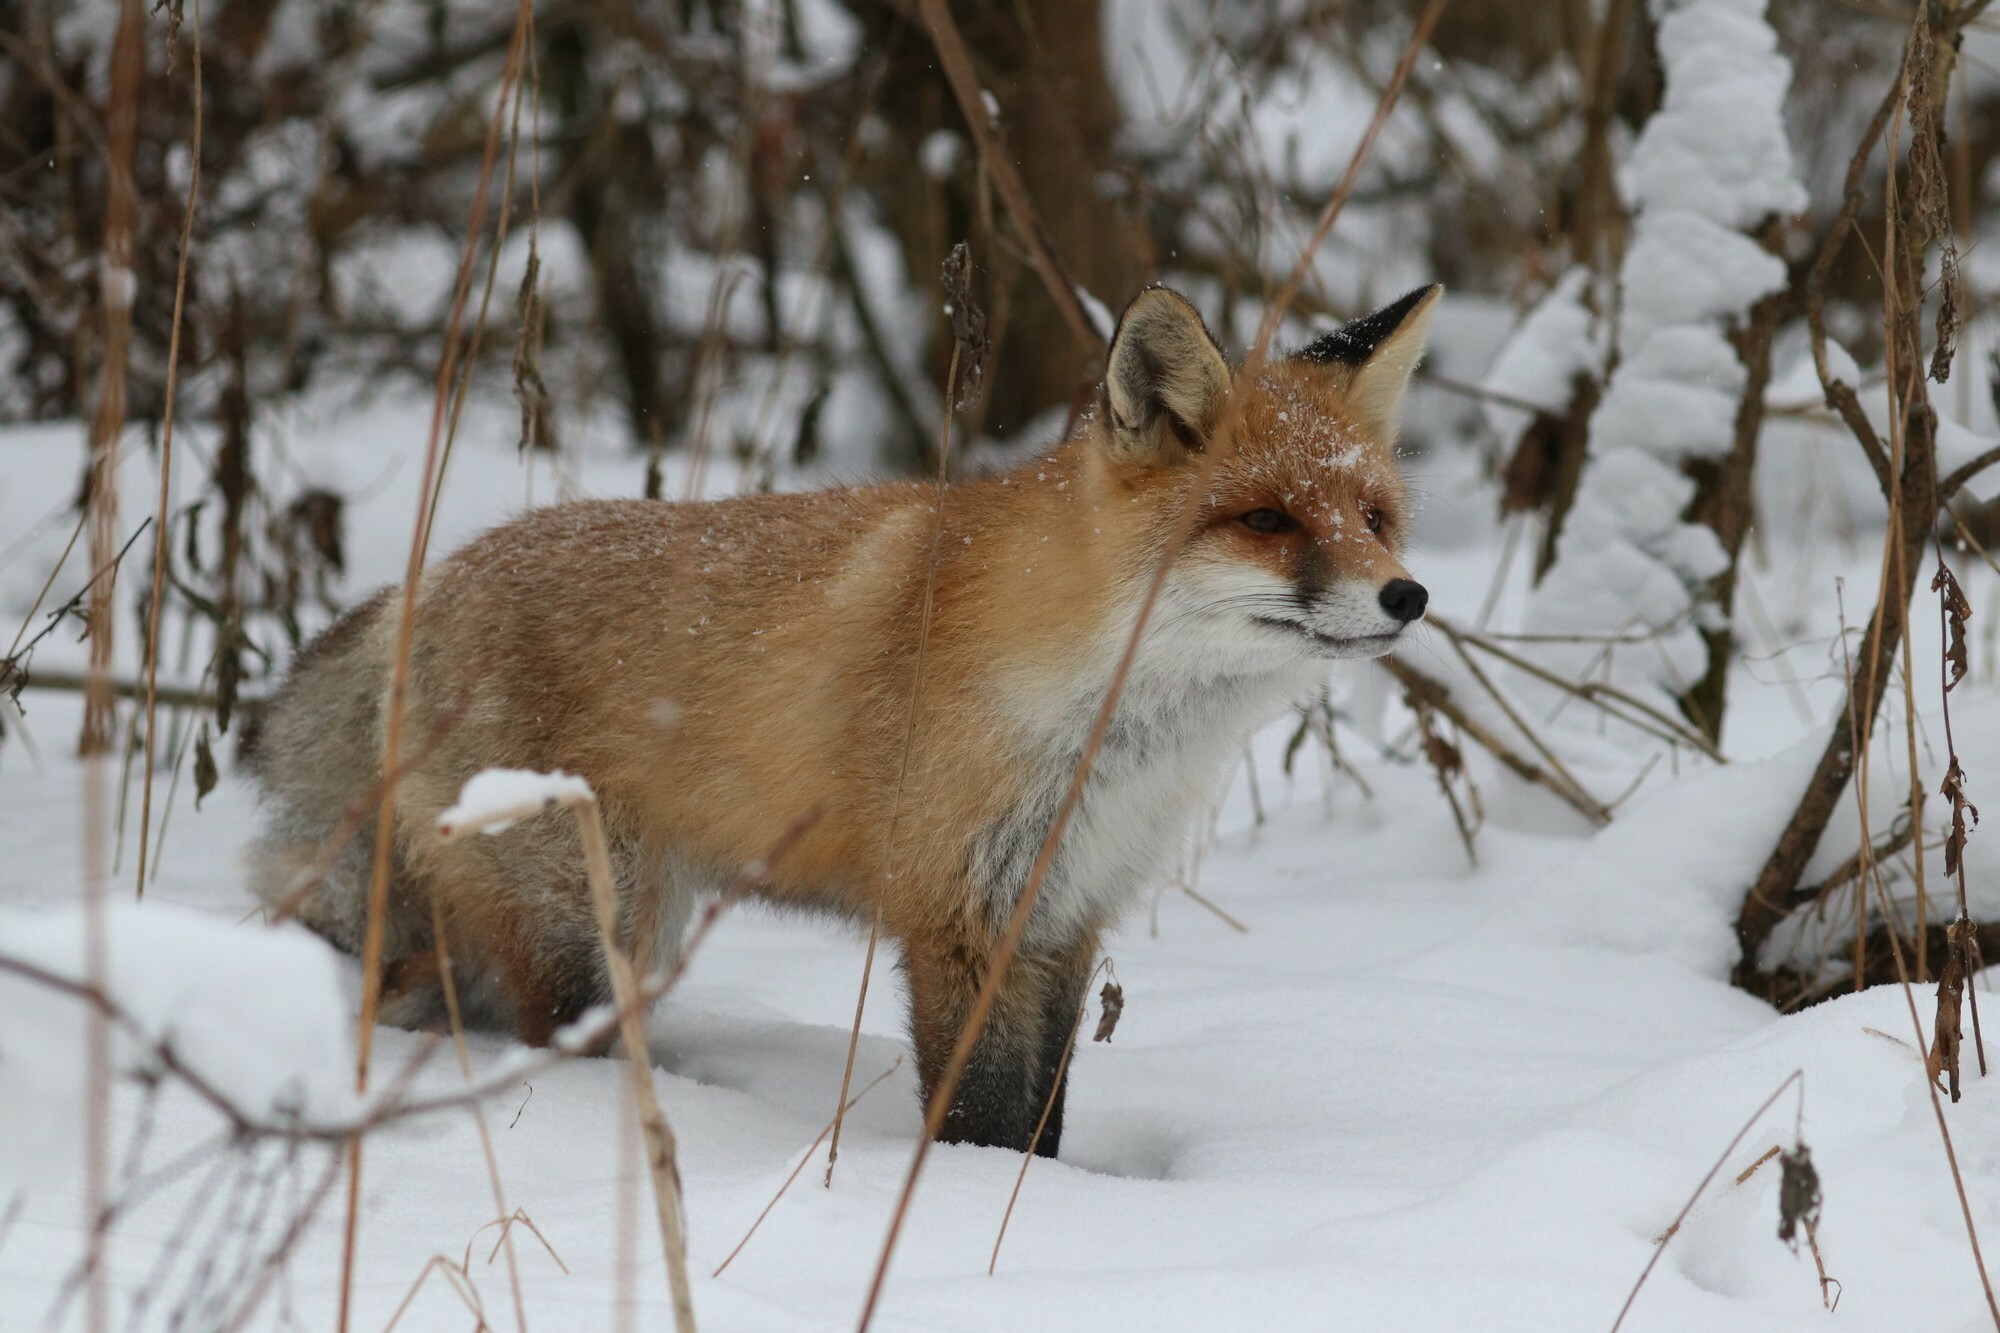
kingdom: Animalia
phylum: Chordata
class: Mammalia
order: Carnivora
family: Canidae
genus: Vulpes
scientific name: Vulpes vulpes
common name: Red fox
